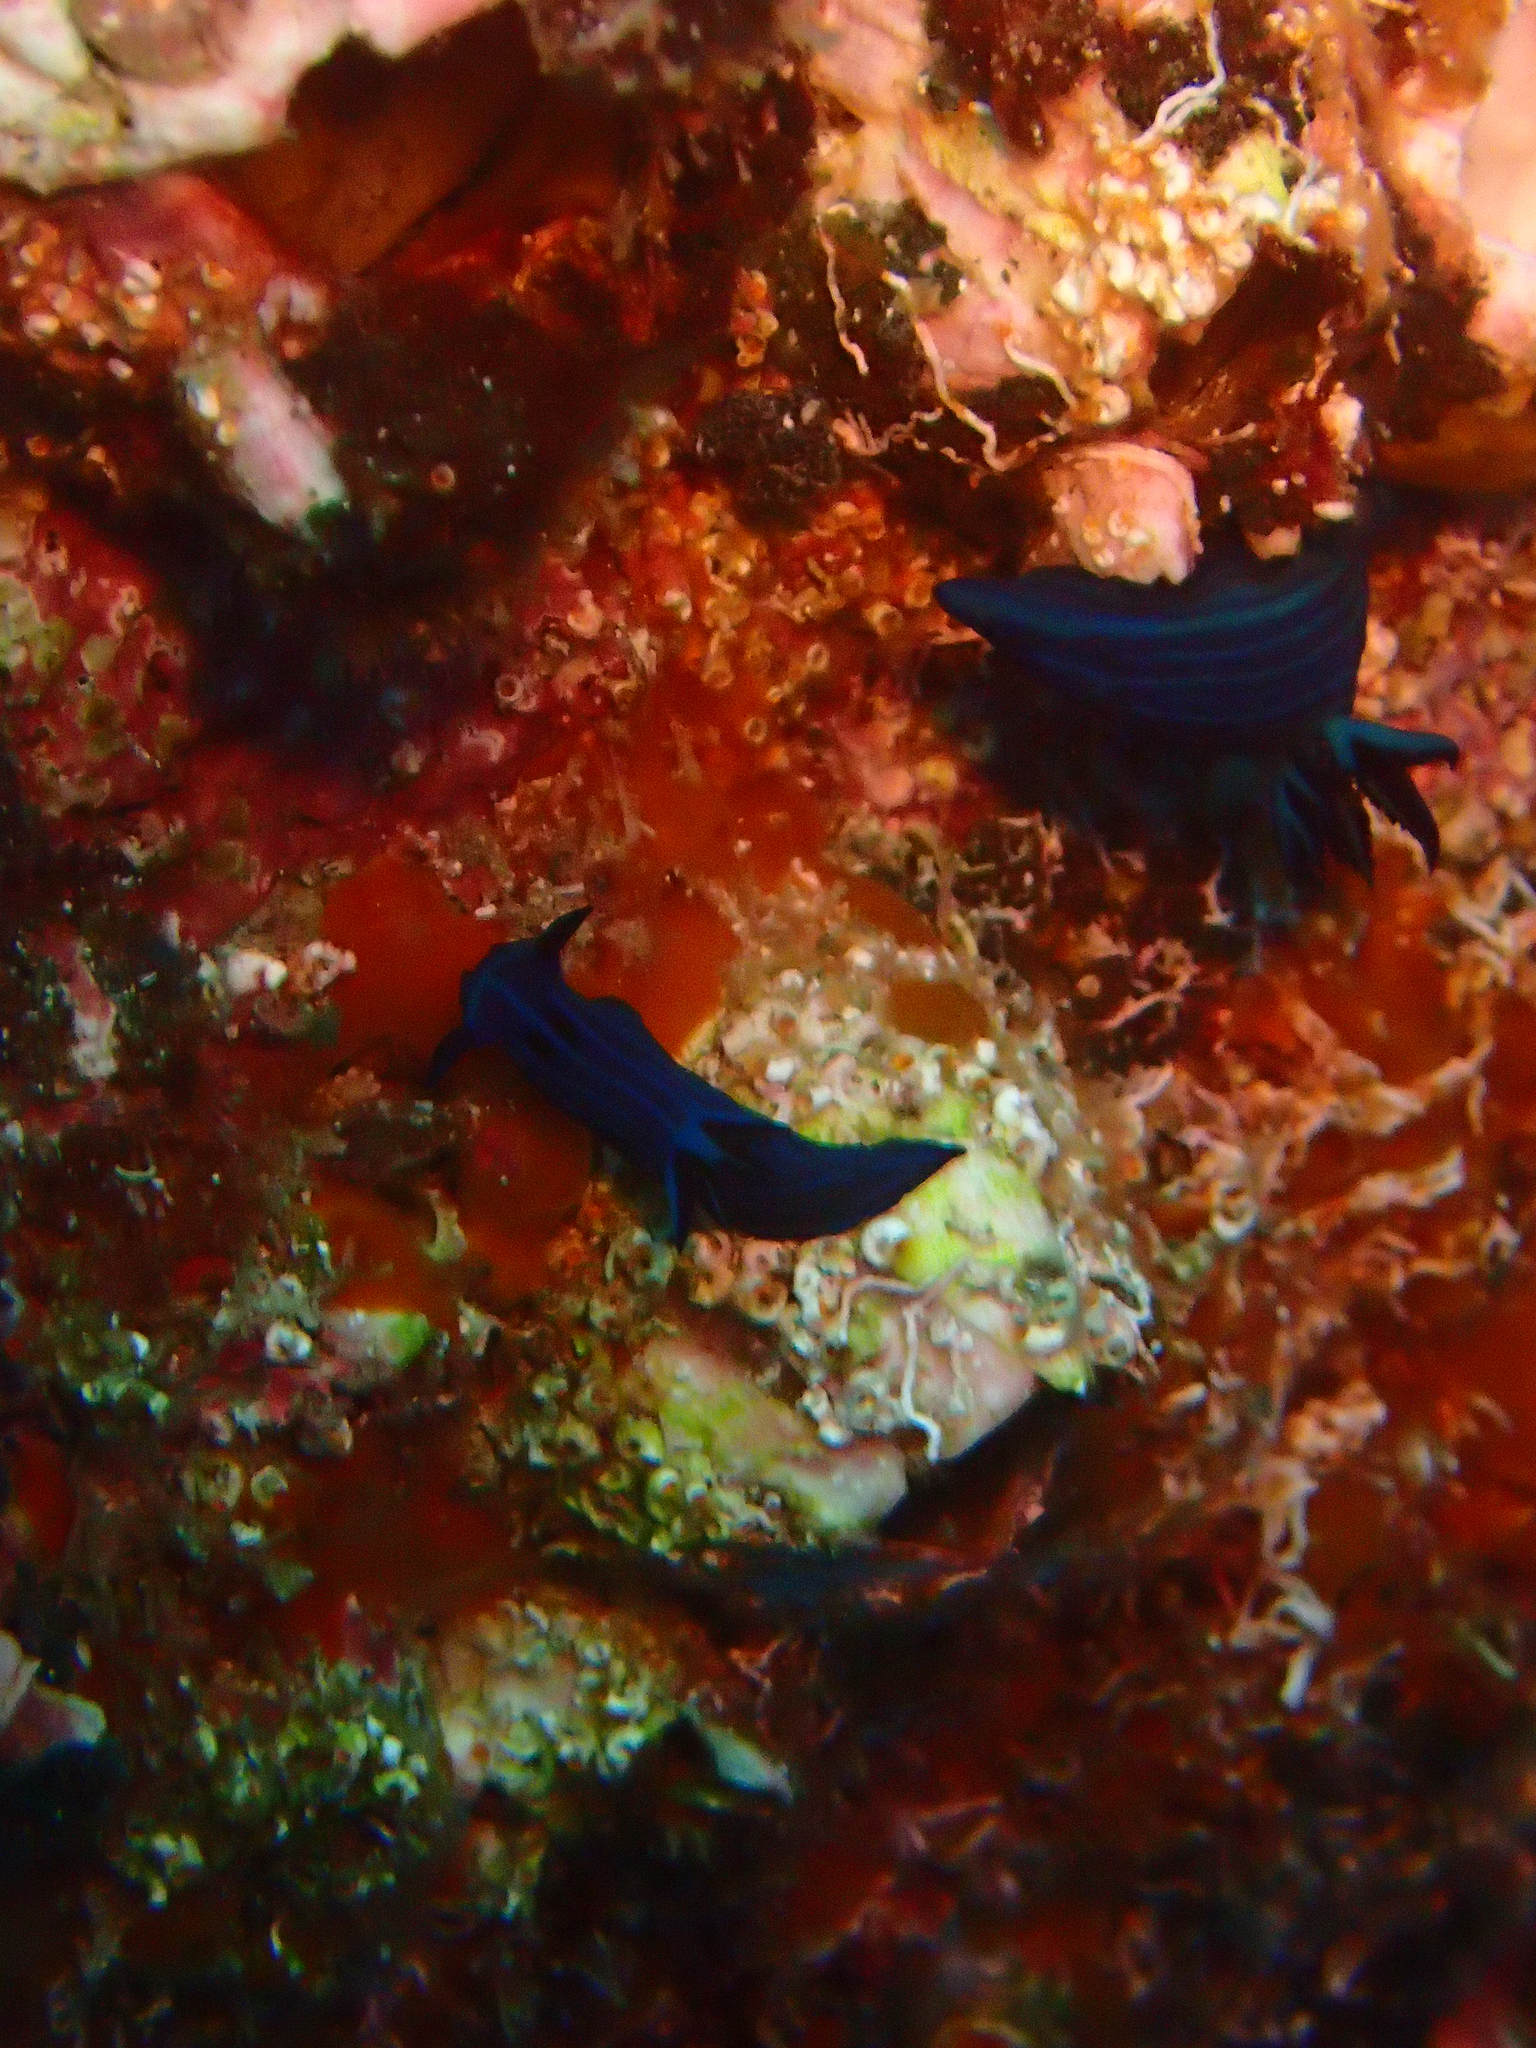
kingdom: Animalia
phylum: Mollusca
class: Gastropoda
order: Nudibranchia
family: Polyceridae
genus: Tambja
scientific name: Tambja mullineri
